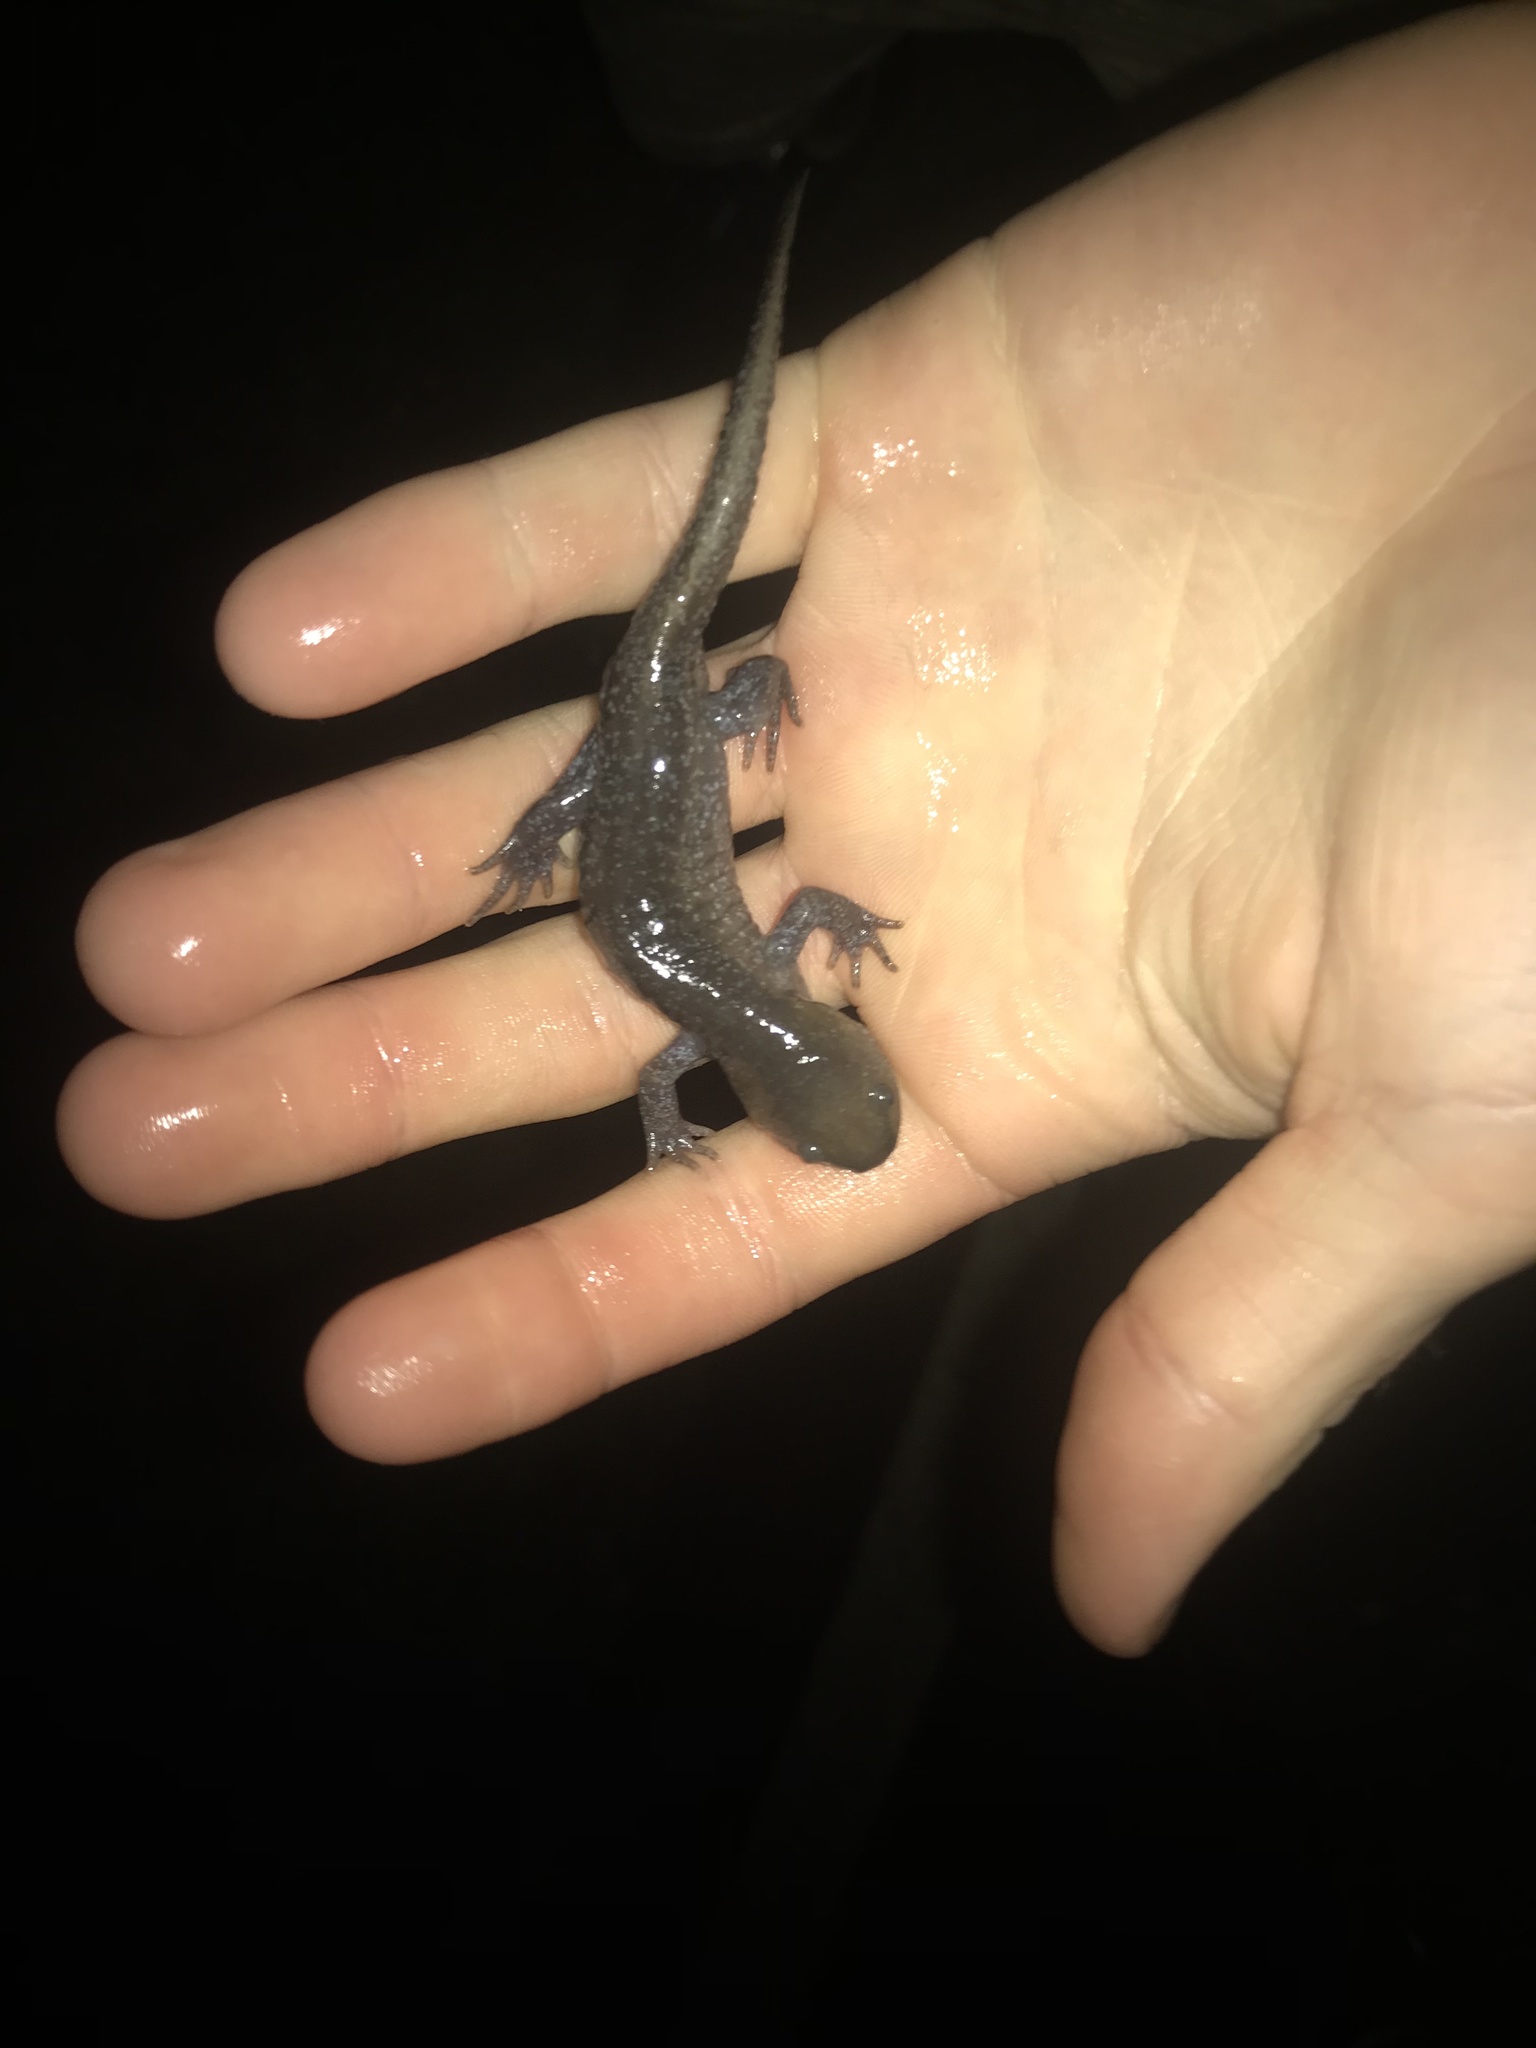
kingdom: Animalia
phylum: Chordata
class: Amphibia
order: Caudata
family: Ambystomatidae
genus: Ambystoma
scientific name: Ambystoma talpoideum
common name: Mole salamander
